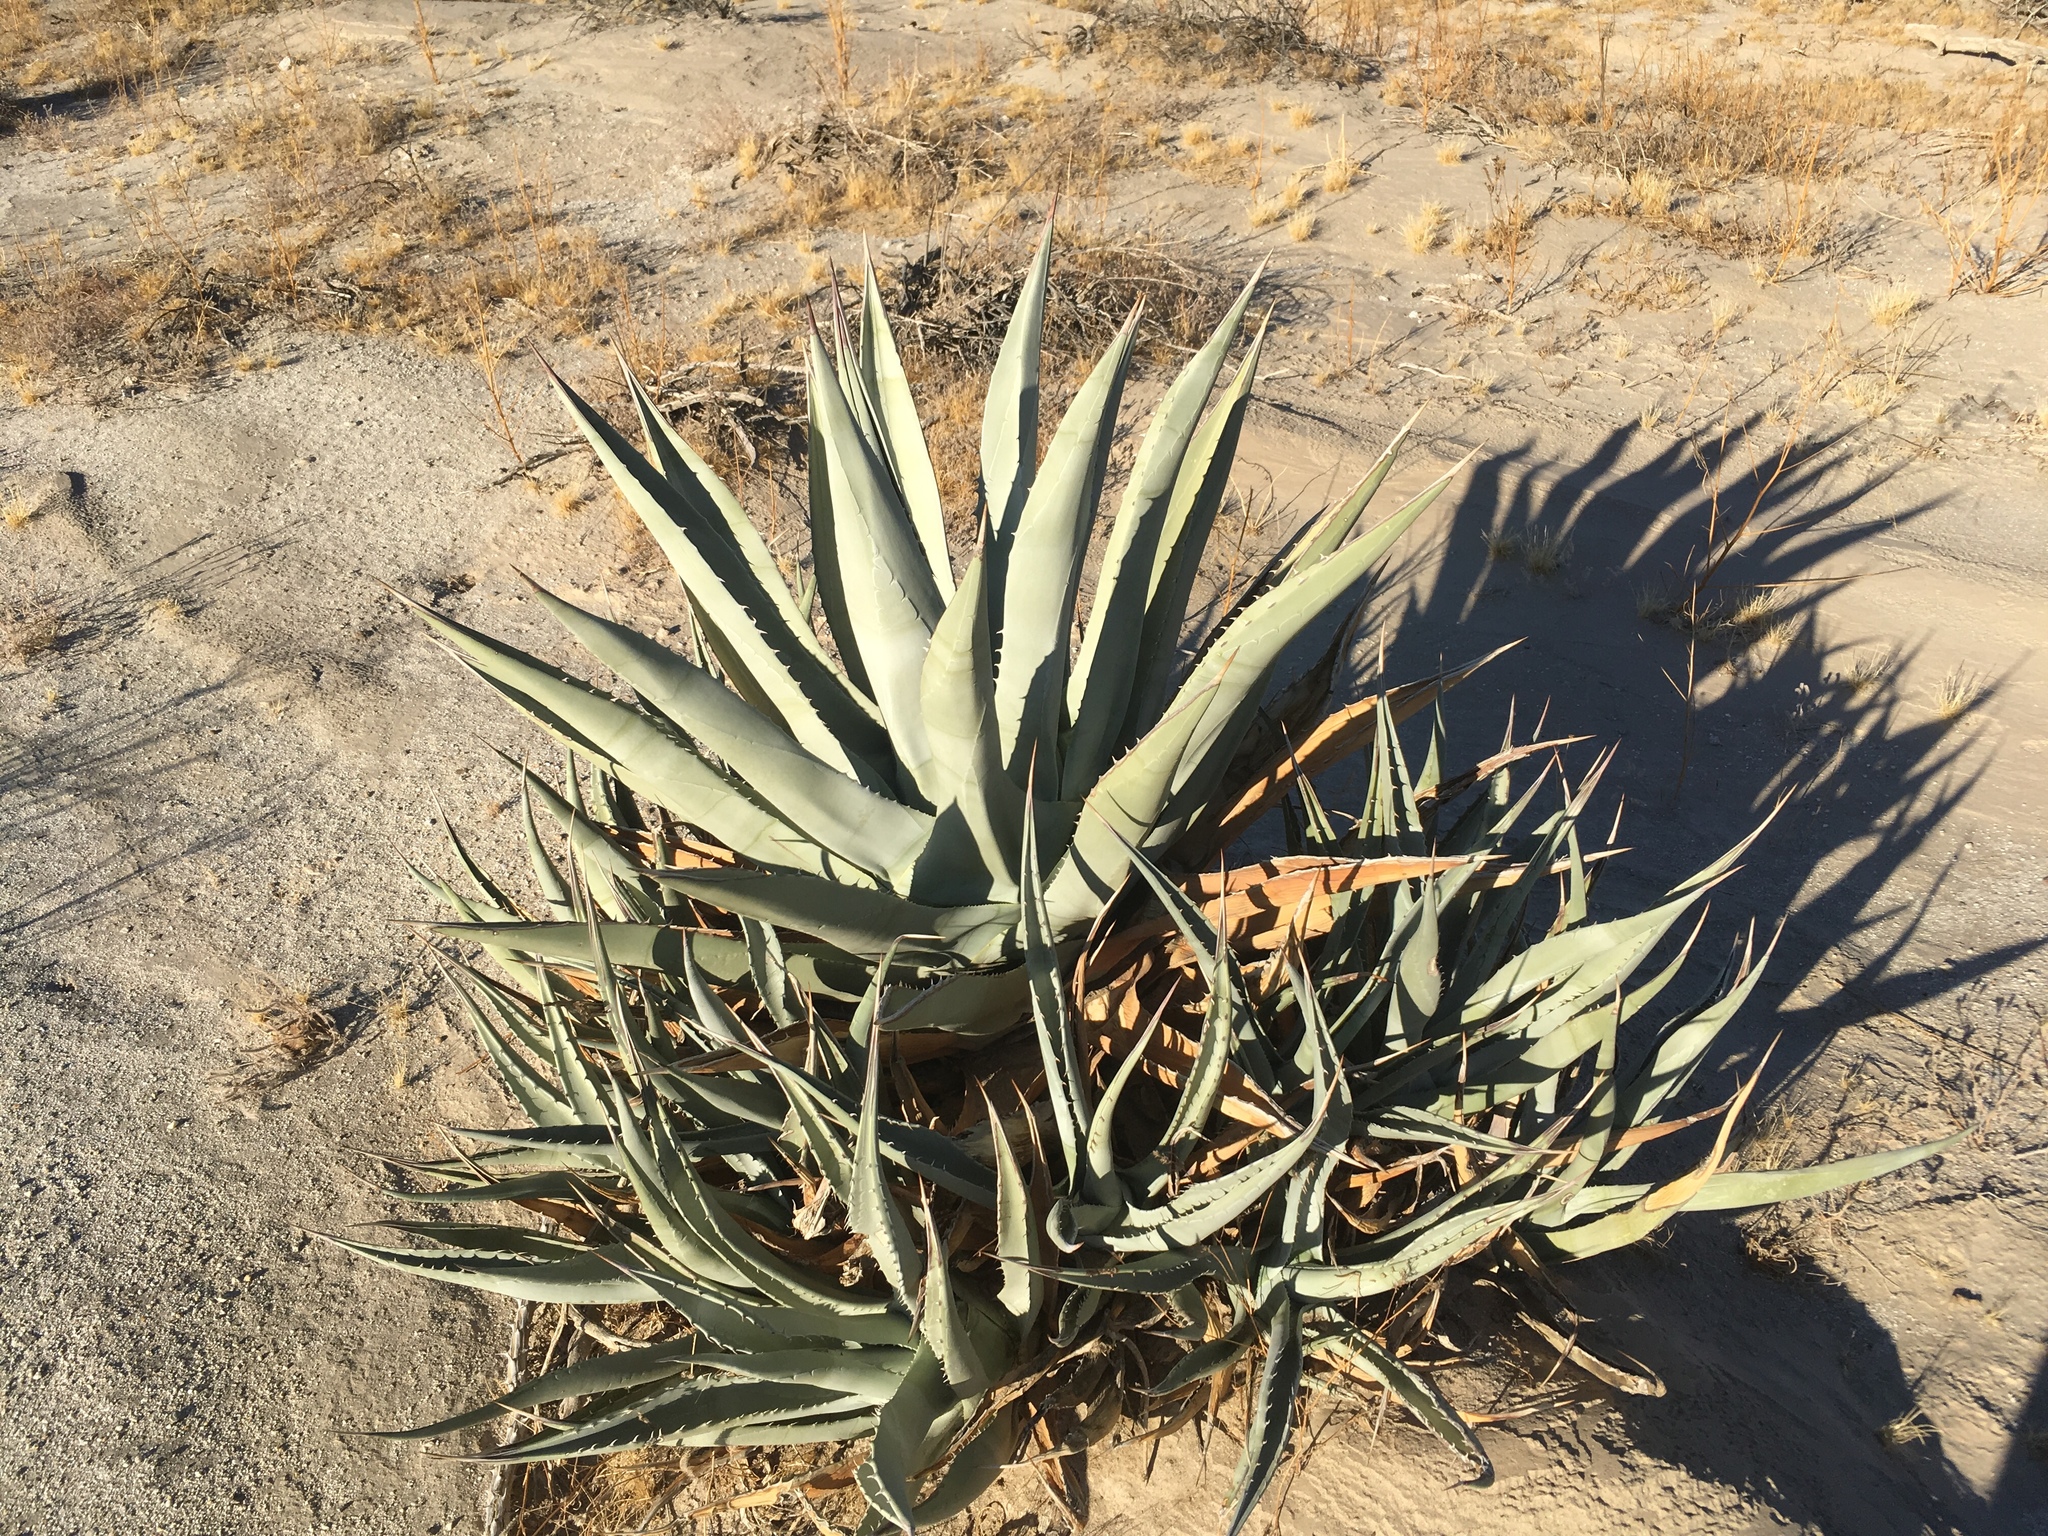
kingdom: Plantae
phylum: Tracheophyta
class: Liliopsida
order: Asparagales
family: Asparagaceae
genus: Agave
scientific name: Agave deserti
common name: Desert agave
